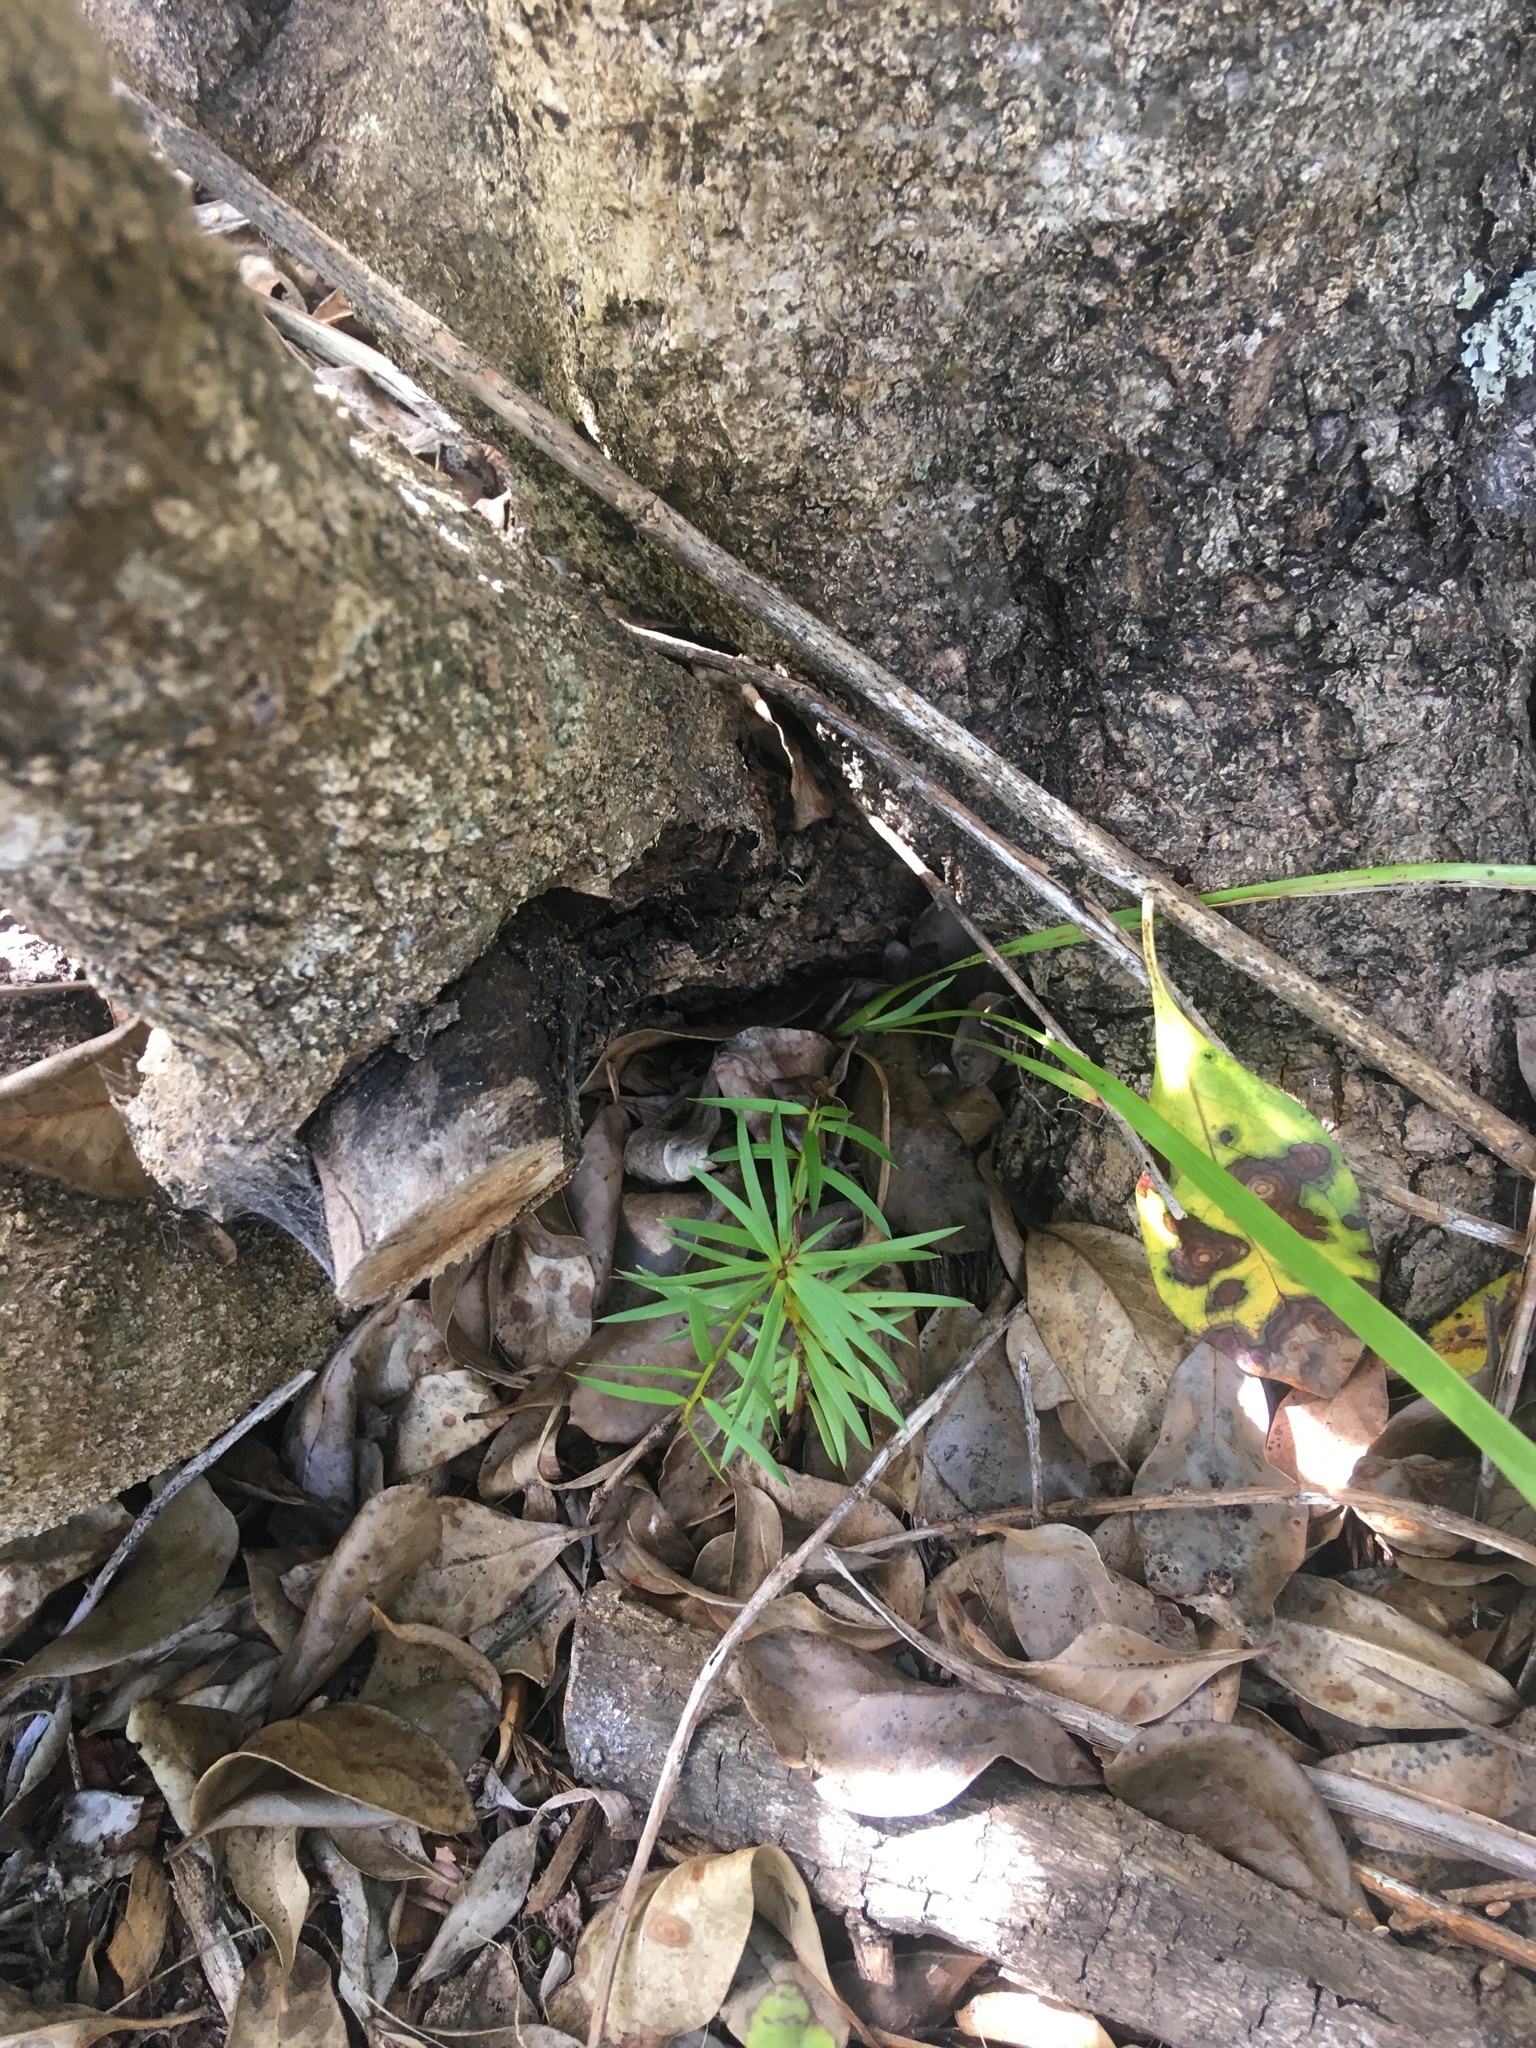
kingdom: Plantae
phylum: Tracheophyta
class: Pinopsida
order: Pinales
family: Podocarpaceae
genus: Podocarpus
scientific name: Podocarpus totara
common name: Totara
